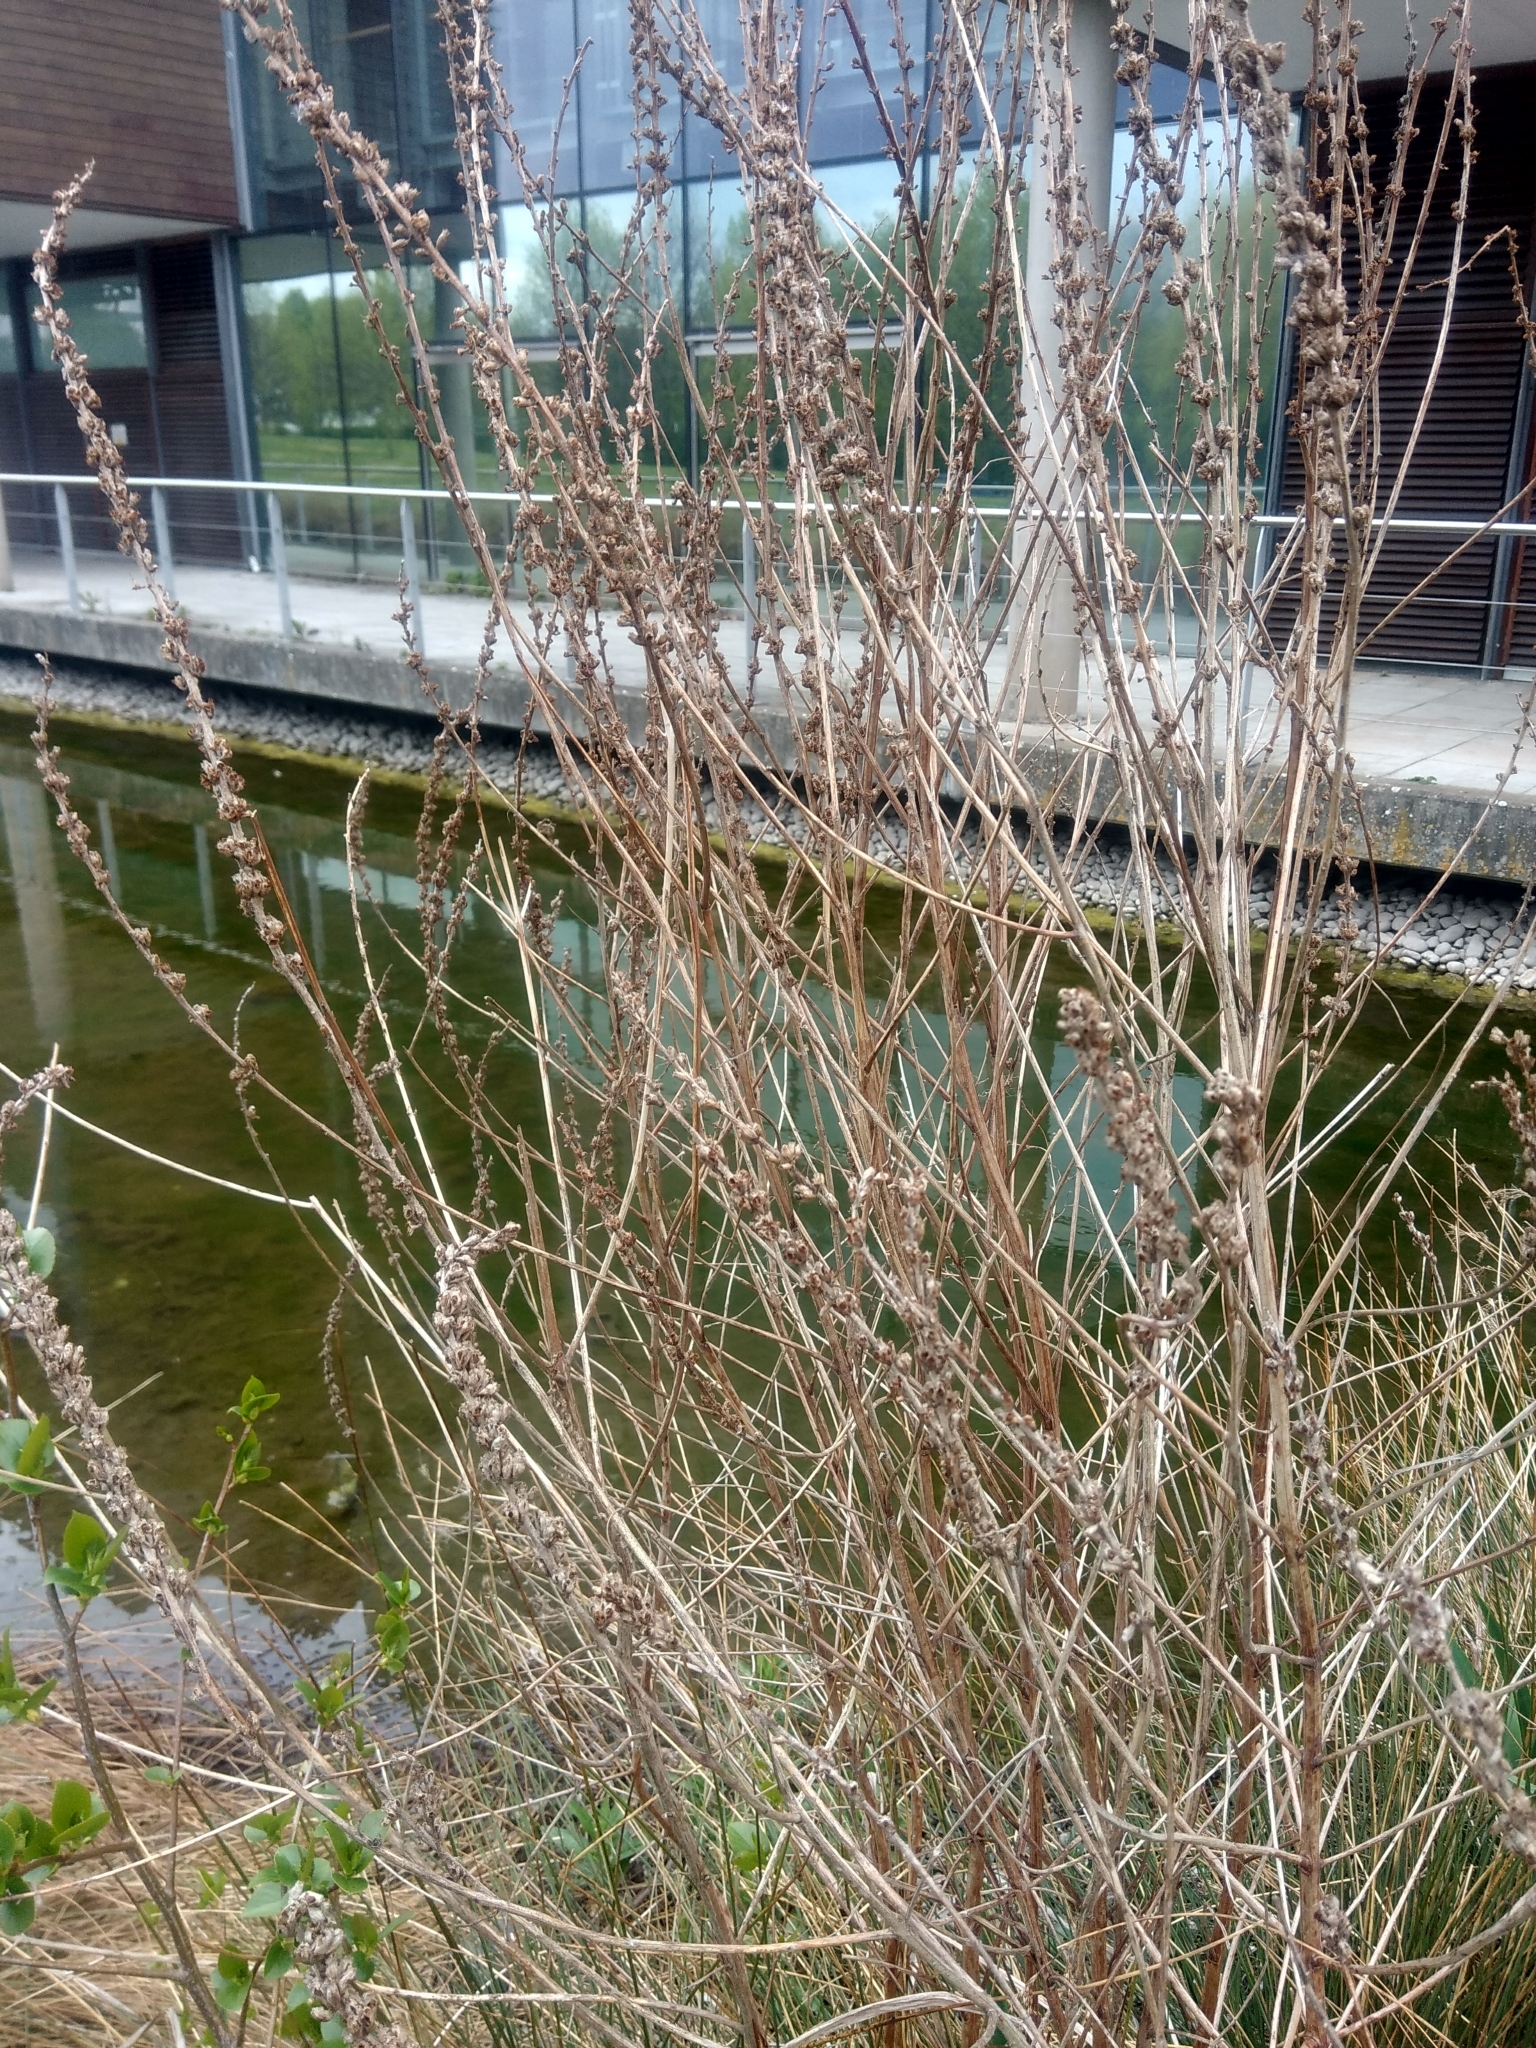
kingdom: Plantae
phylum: Tracheophyta
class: Magnoliopsida
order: Myrtales
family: Lythraceae
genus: Lythrum
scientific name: Lythrum salicaria
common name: Purple loosestrife
